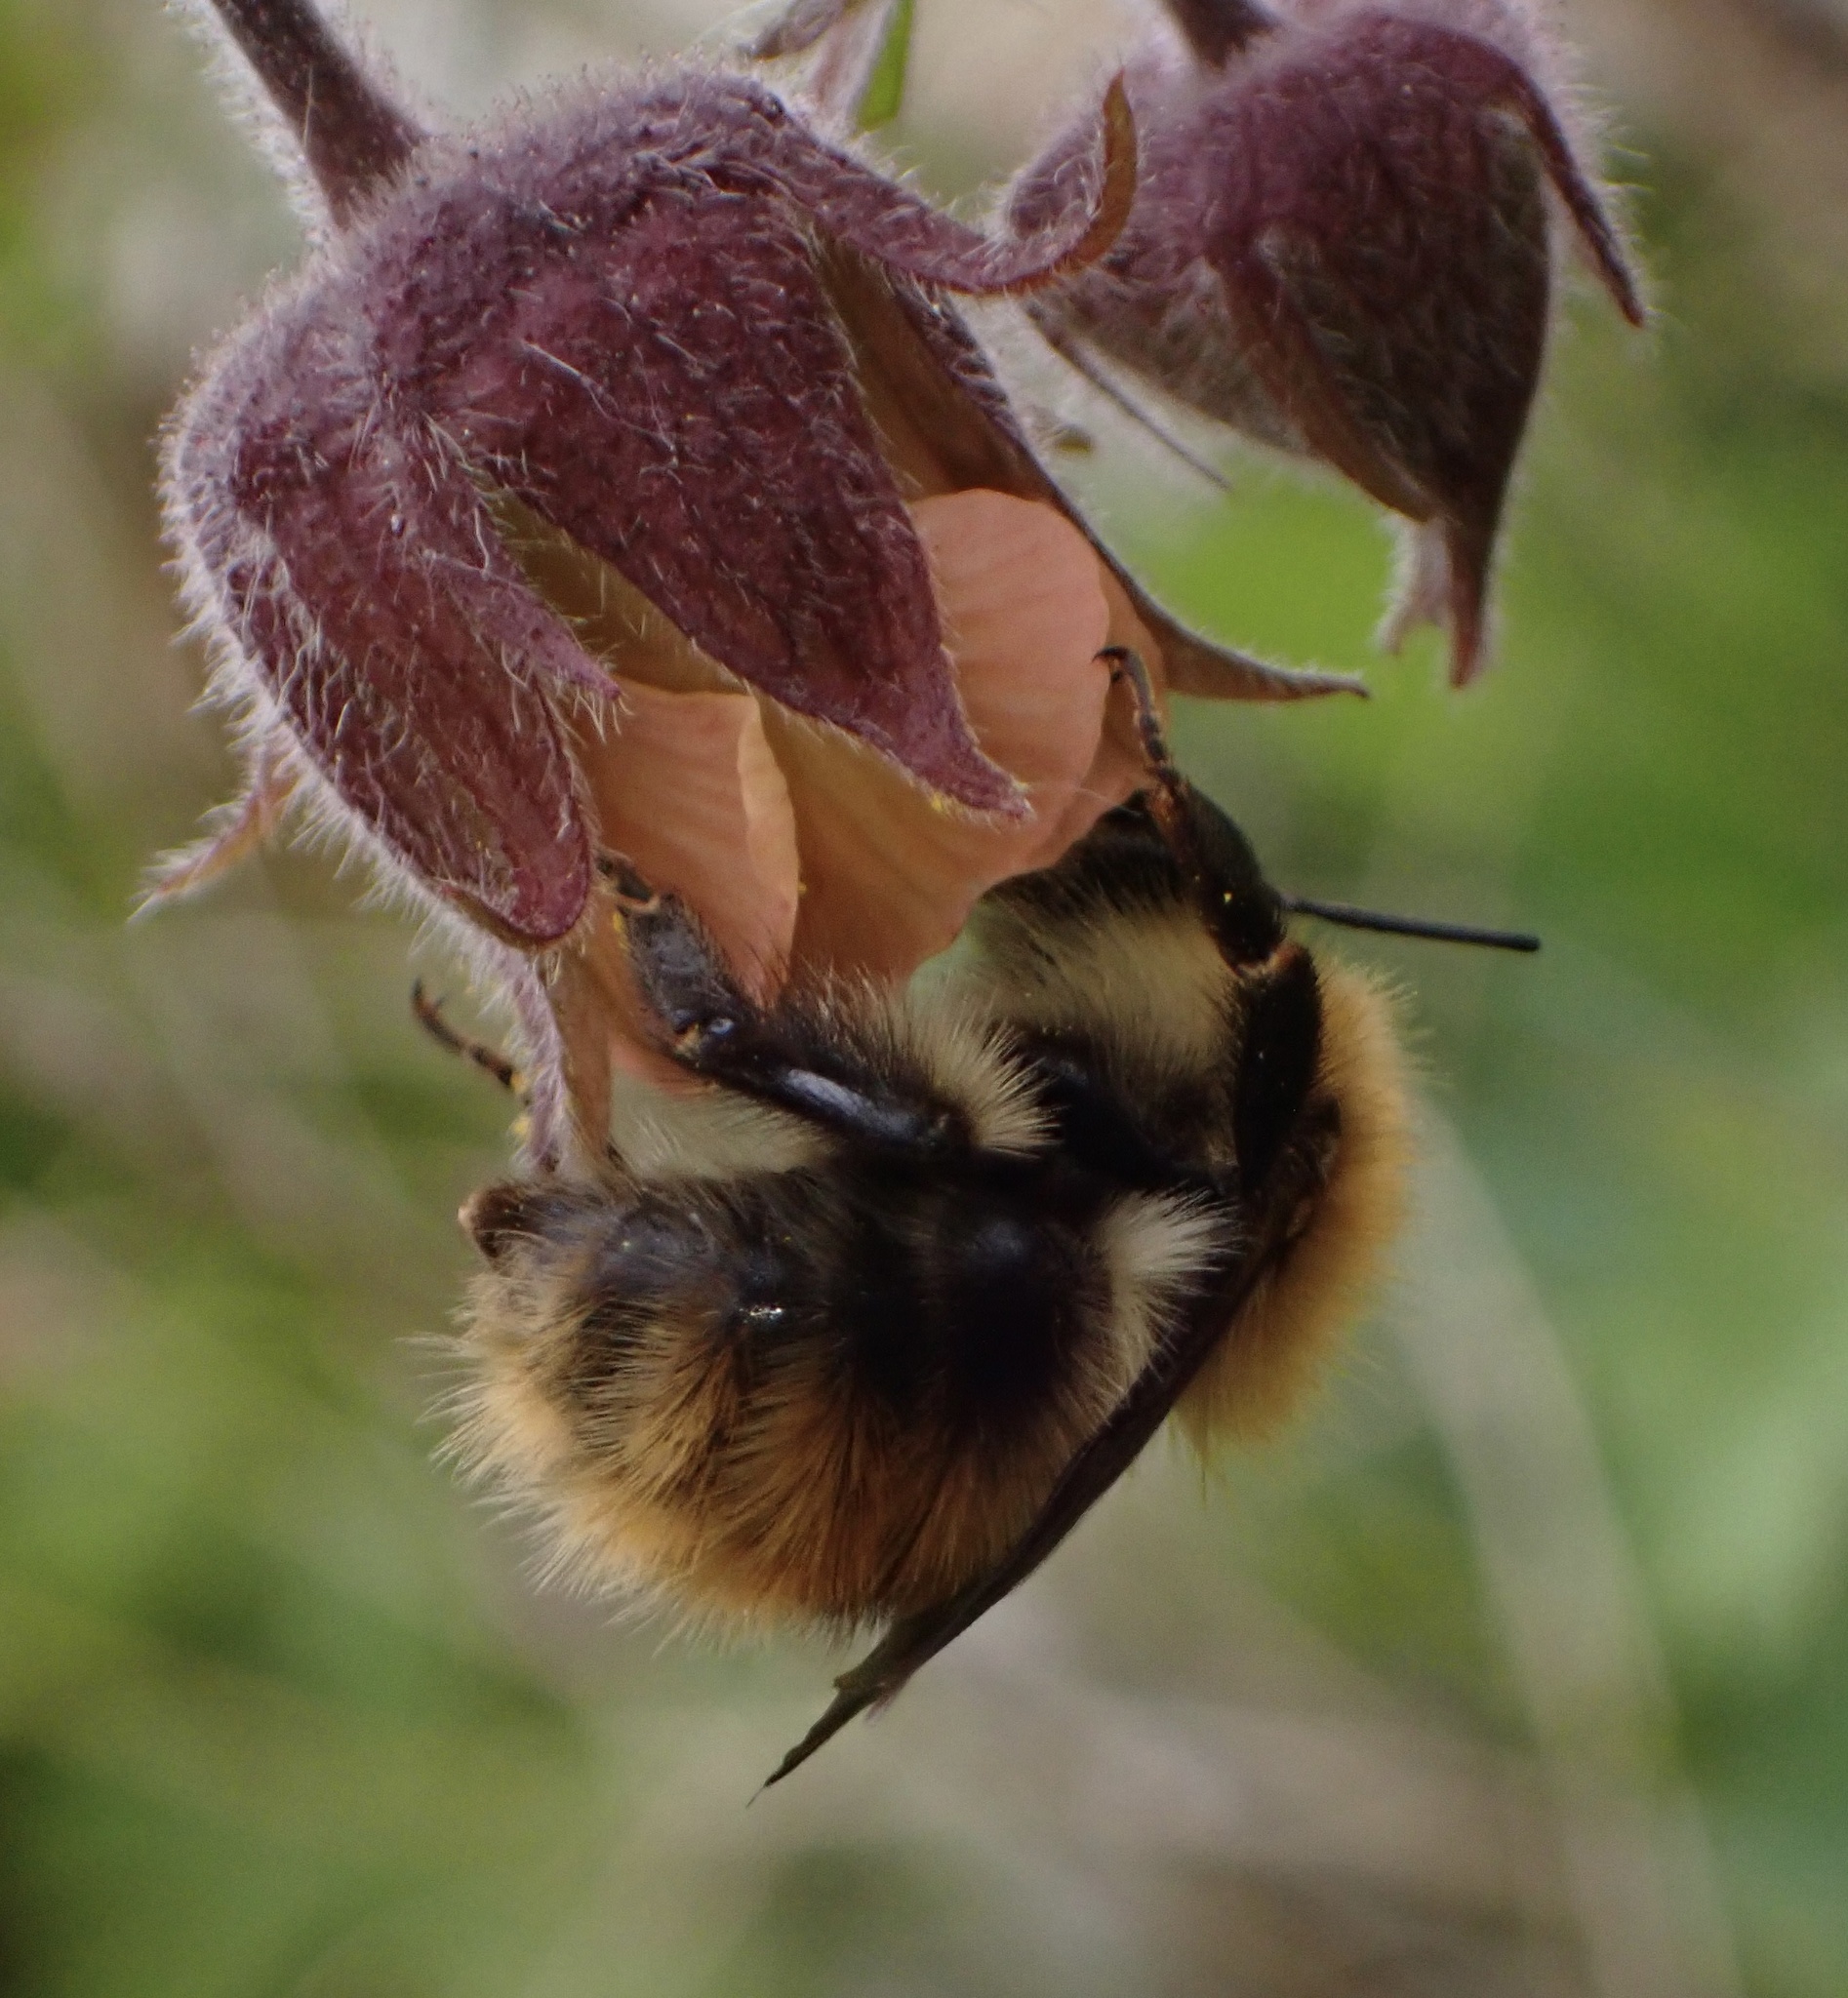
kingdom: Animalia
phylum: Arthropoda
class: Insecta
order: Hymenoptera
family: Apidae
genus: Bombus
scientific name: Bombus pascuorum
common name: Common carder bee
